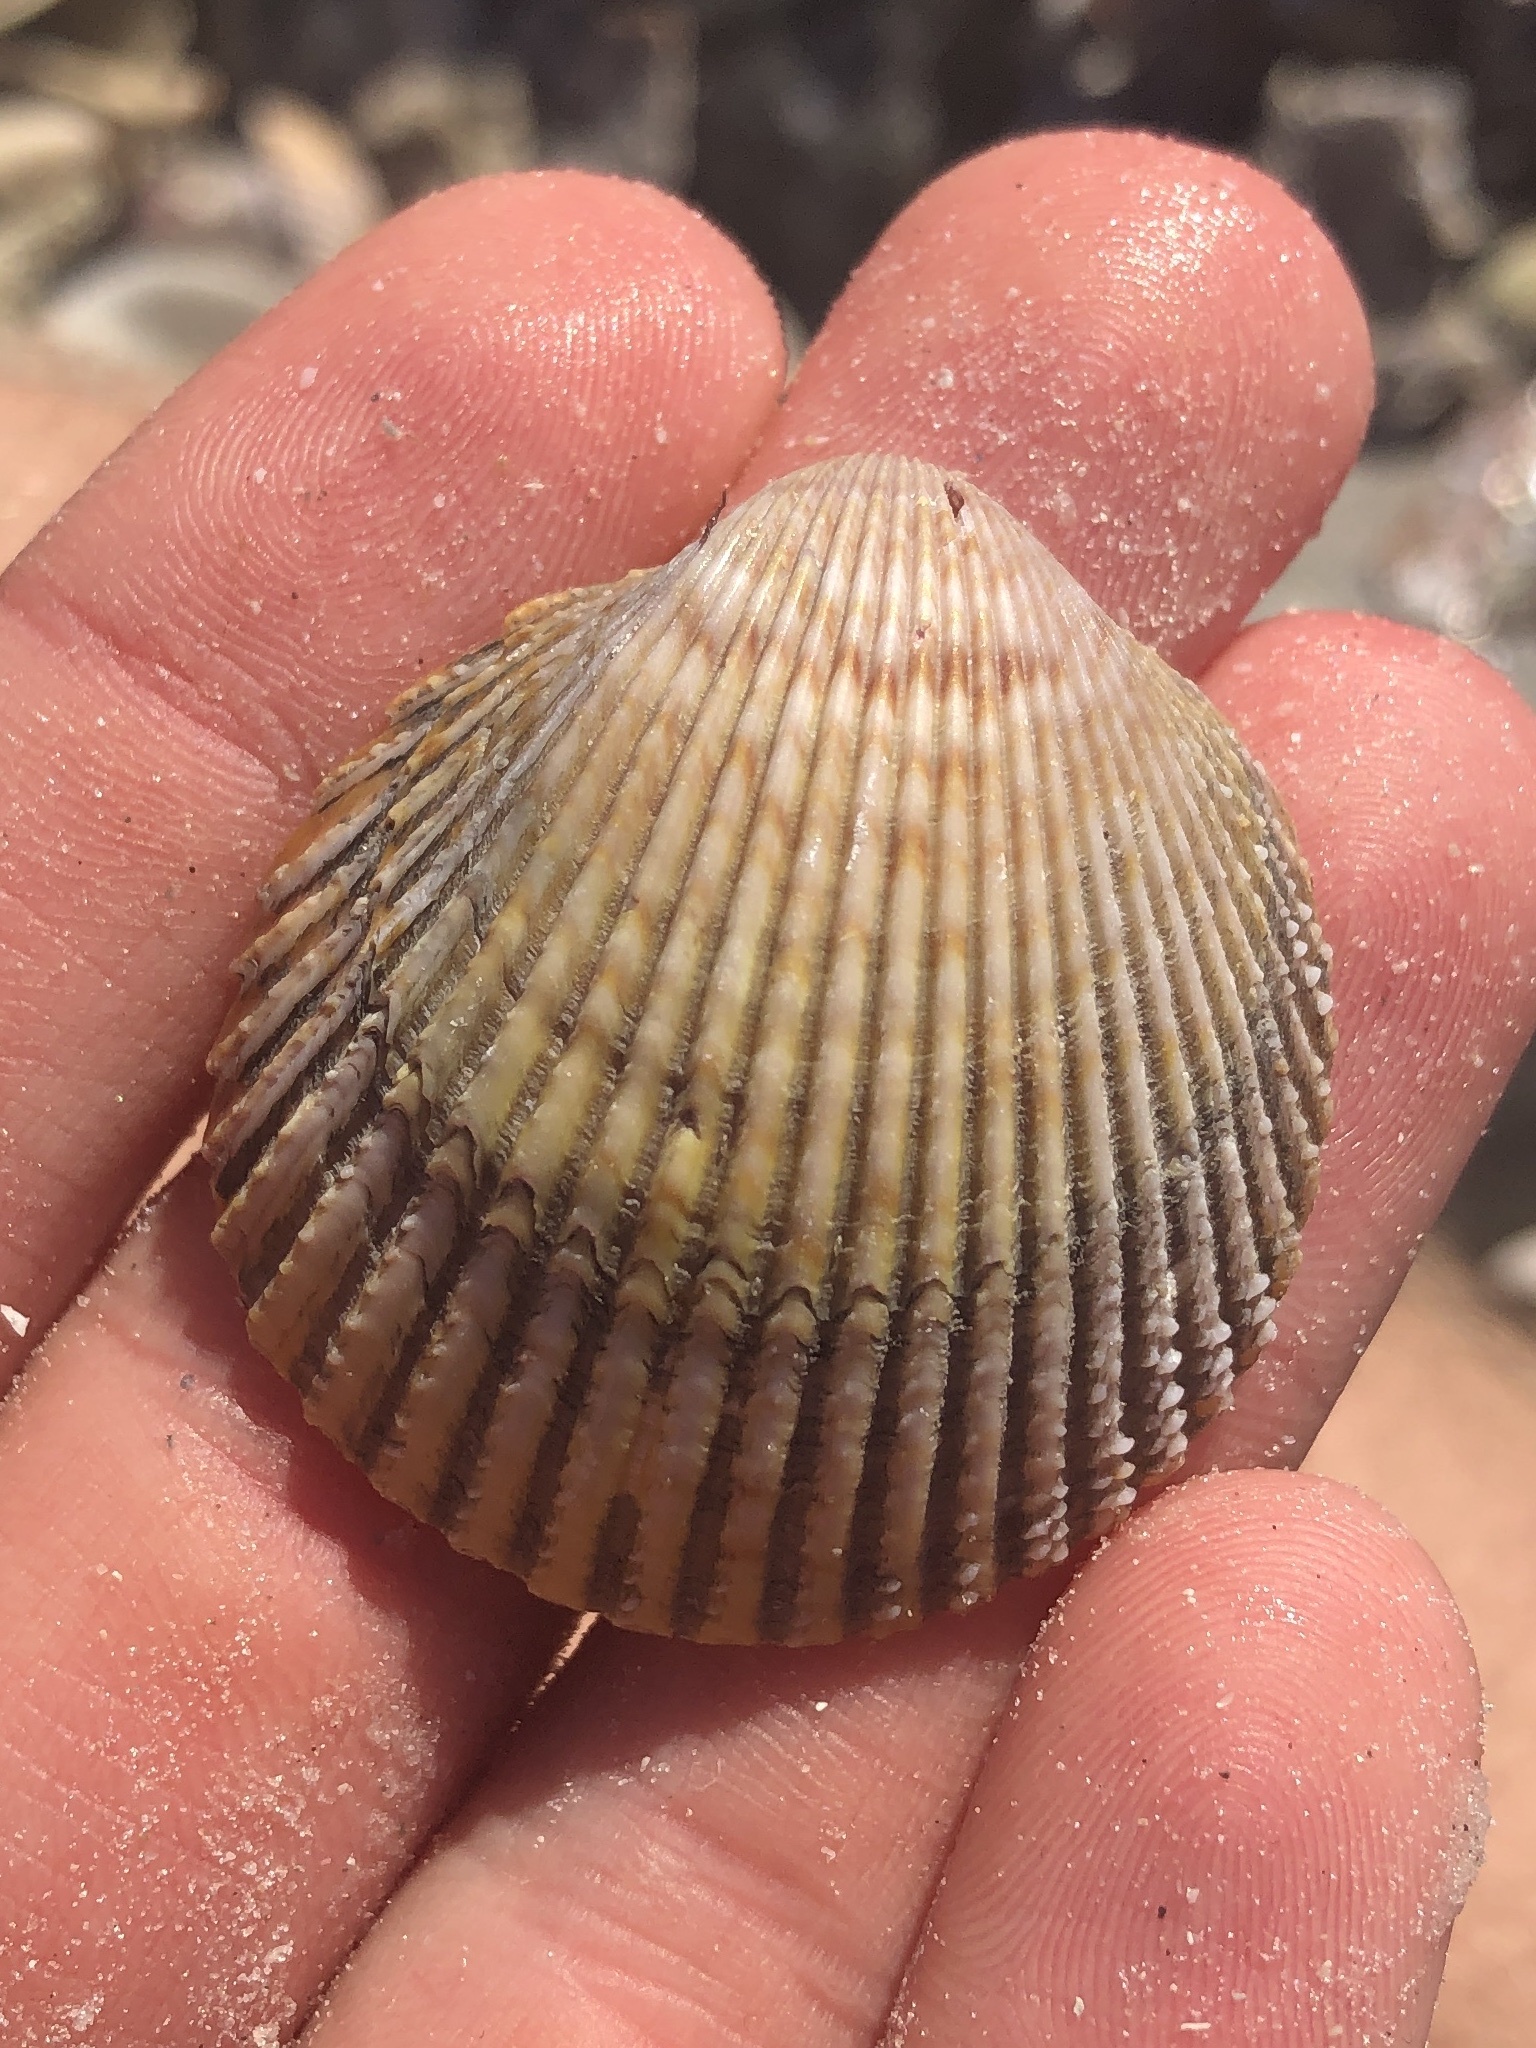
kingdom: Animalia
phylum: Mollusca
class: Bivalvia
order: Cardiida
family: Cardiidae
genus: Dallocardia
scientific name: Dallocardia muricata
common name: Yellow pricklycockle
